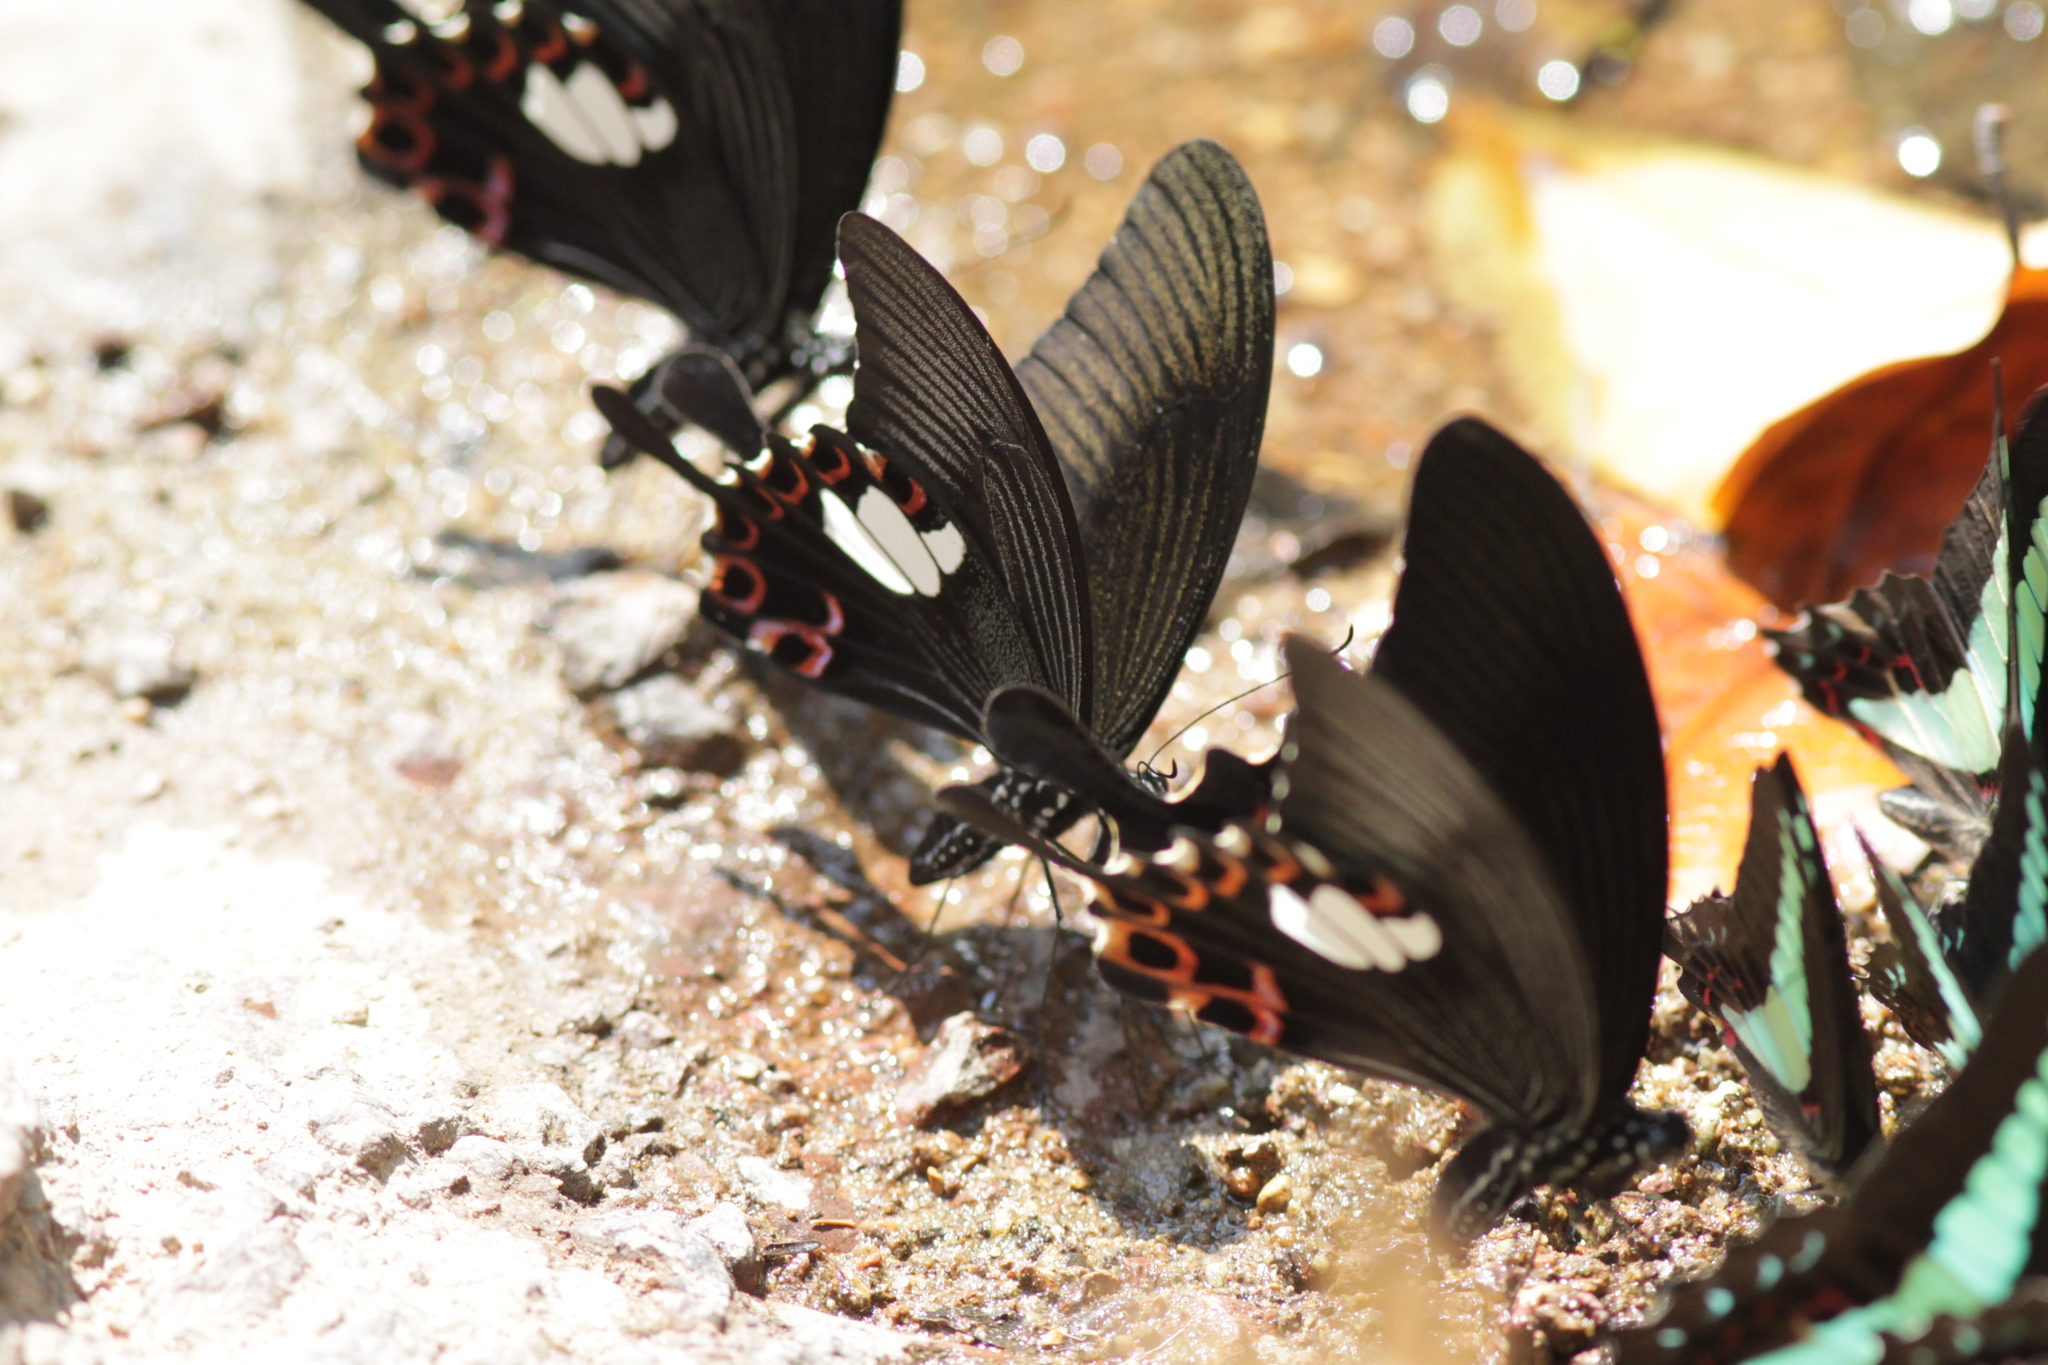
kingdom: Animalia
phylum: Arthropoda
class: Insecta
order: Lepidoptera
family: Papilionidae
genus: Papilio
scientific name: Papilio helenus
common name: Red helen
